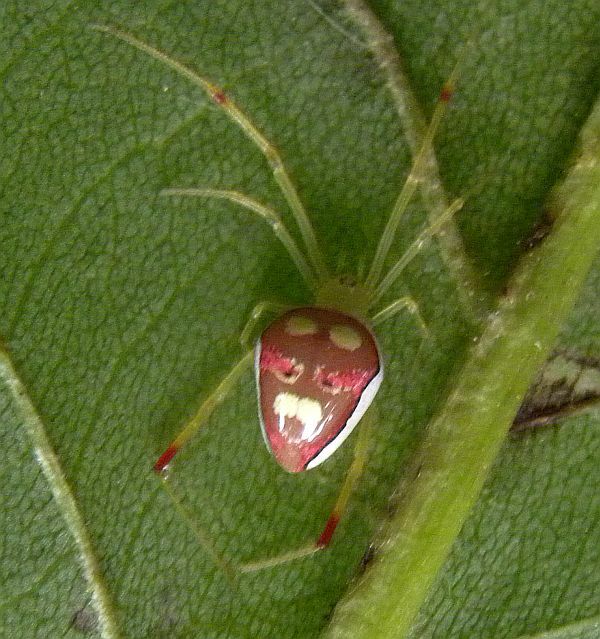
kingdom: Animalia
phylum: Arthropoda
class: Arachnida
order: Araneae
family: Theridiidae
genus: Spintharus
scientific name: Spintharus flavidus
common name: Cobweb spiders
